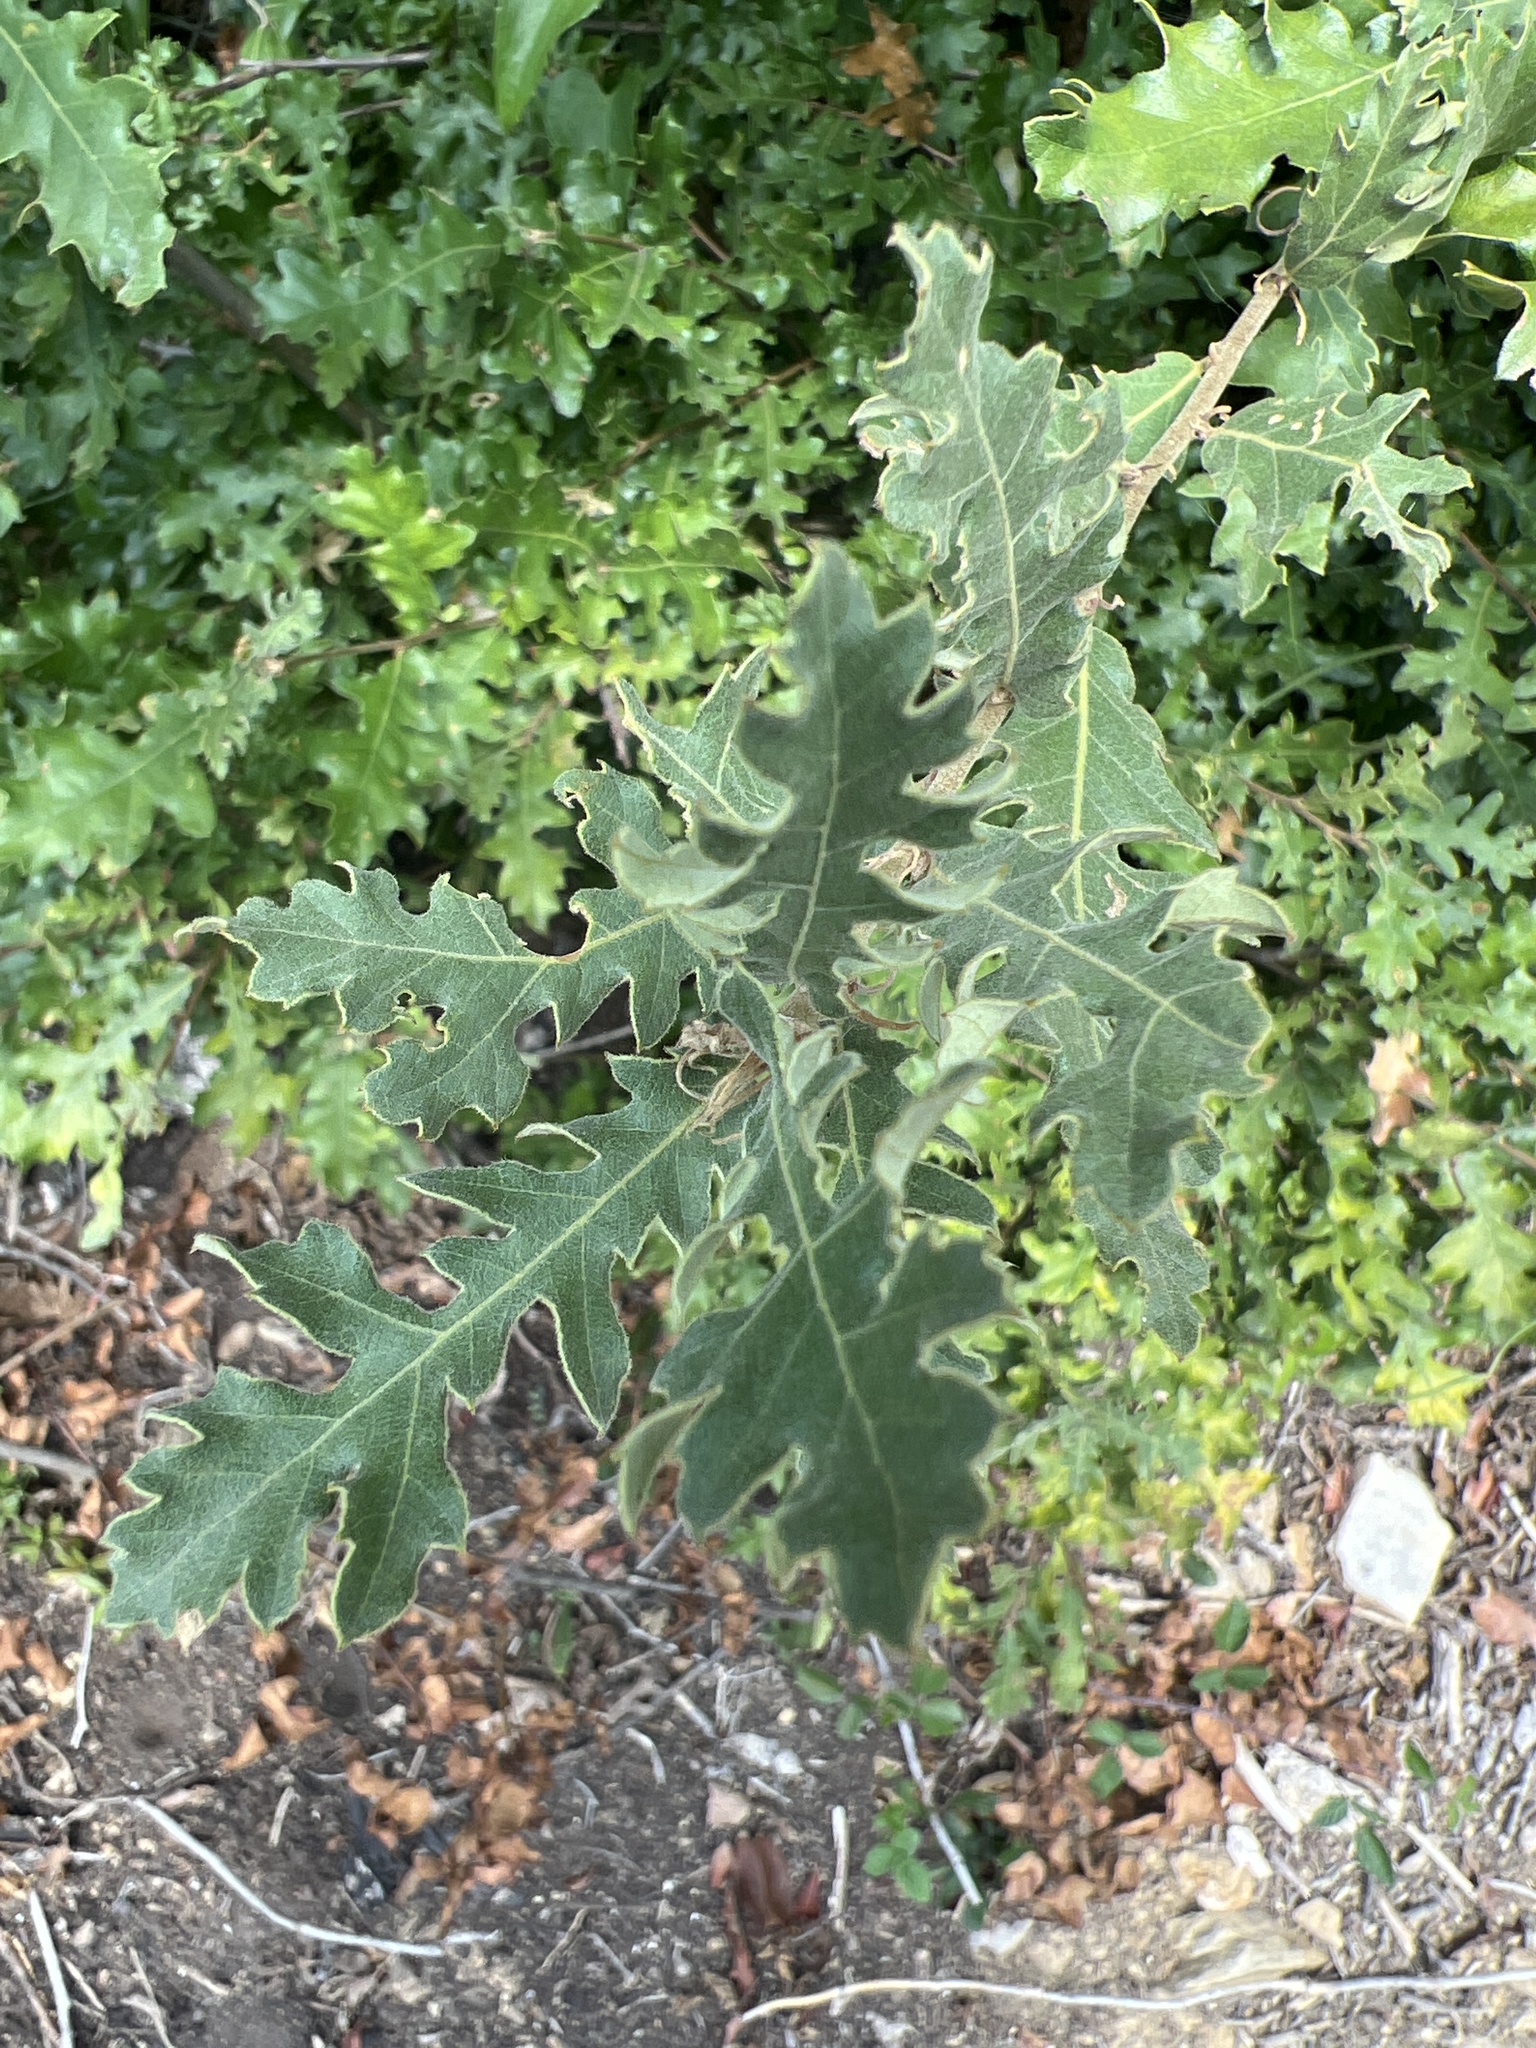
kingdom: Plantae
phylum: Tracheophyta
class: Magnoliopsida
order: Fagales
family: Fagaceae
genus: Quercus
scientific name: Quercus pubescens
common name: Downy oak
